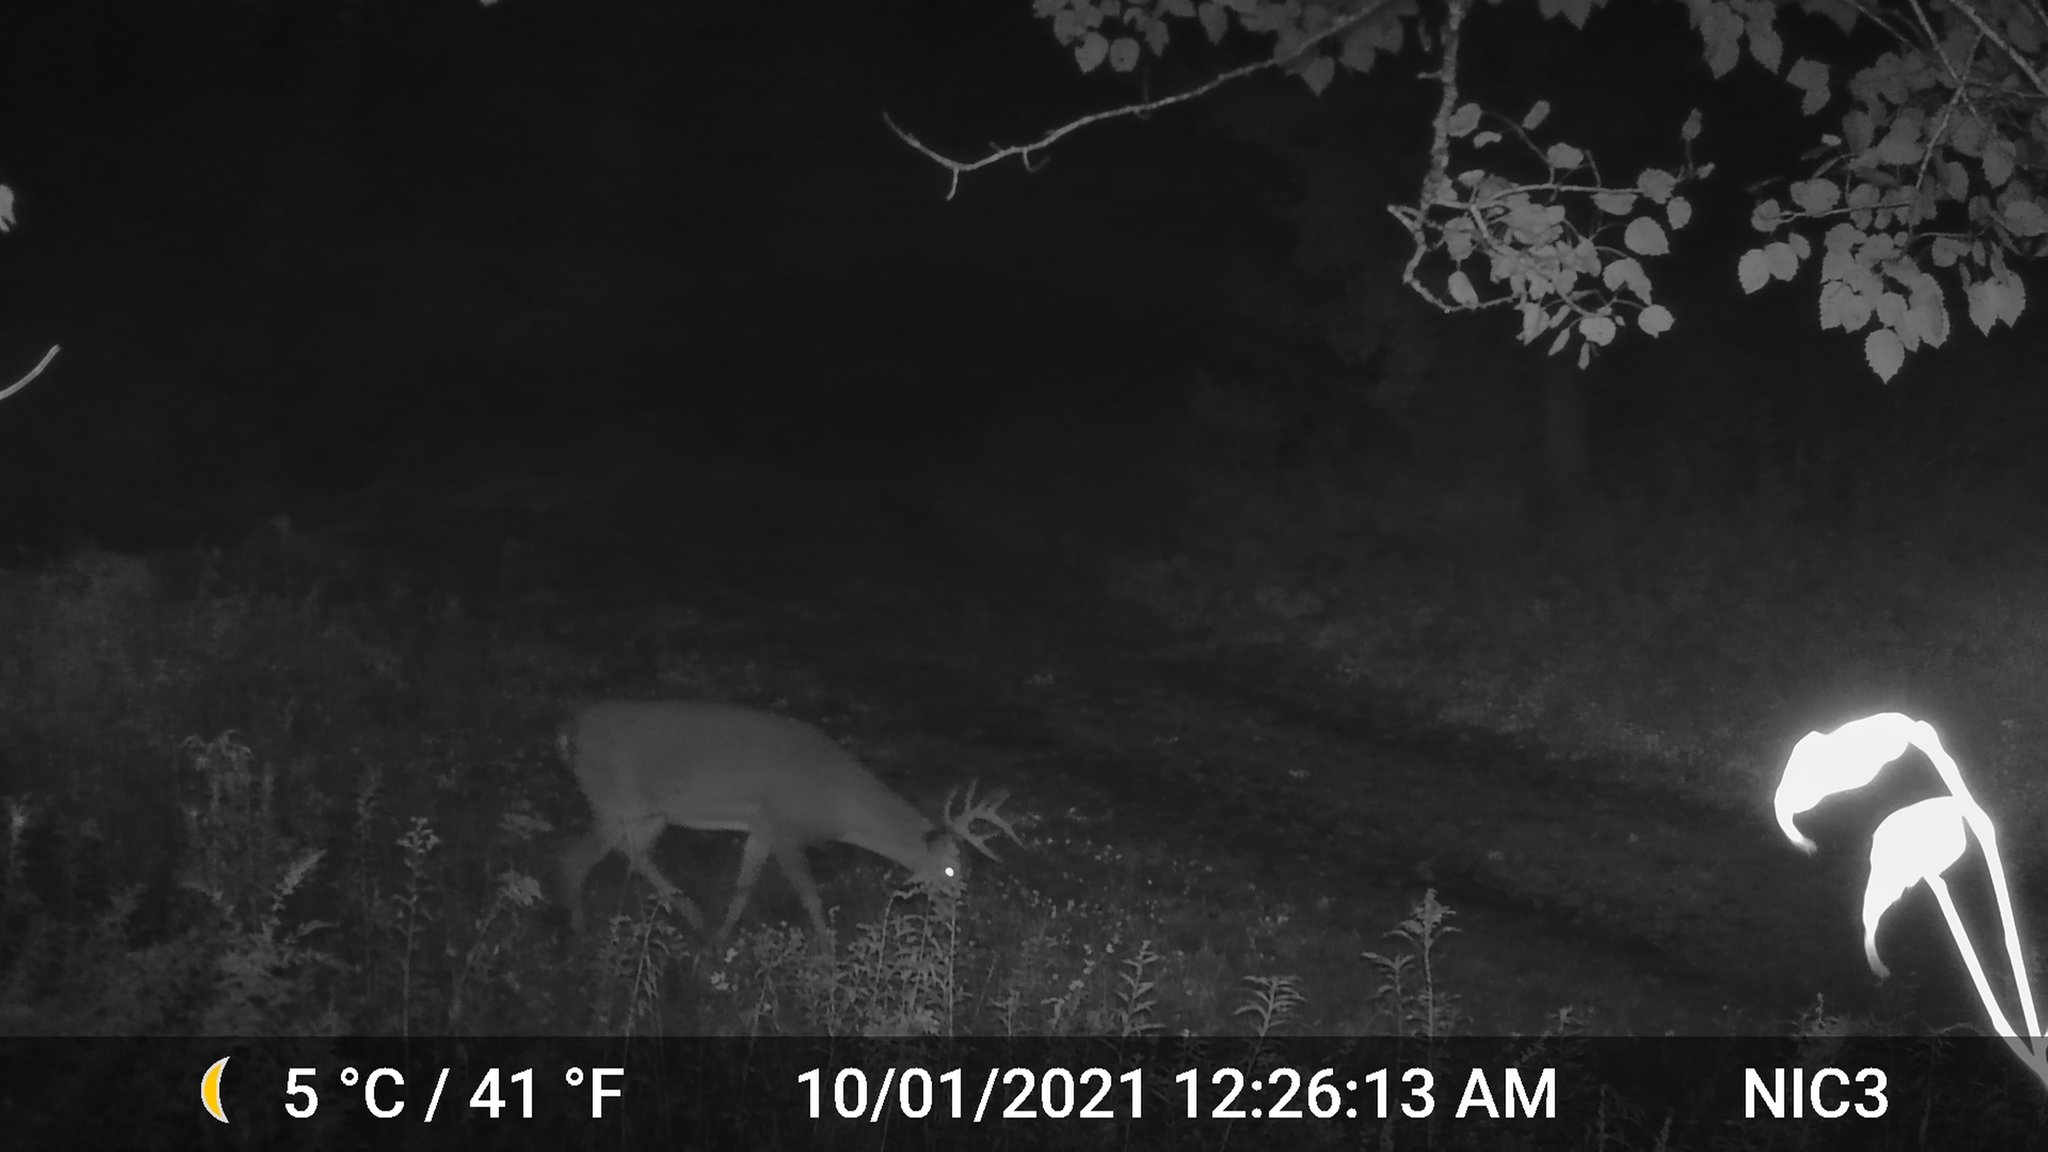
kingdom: Animalia
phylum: Chordata
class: Mammalia
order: Artiodactyla
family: Cervidae
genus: Odocoileus
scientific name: Odocoileus virginianus
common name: White-tailed deer
